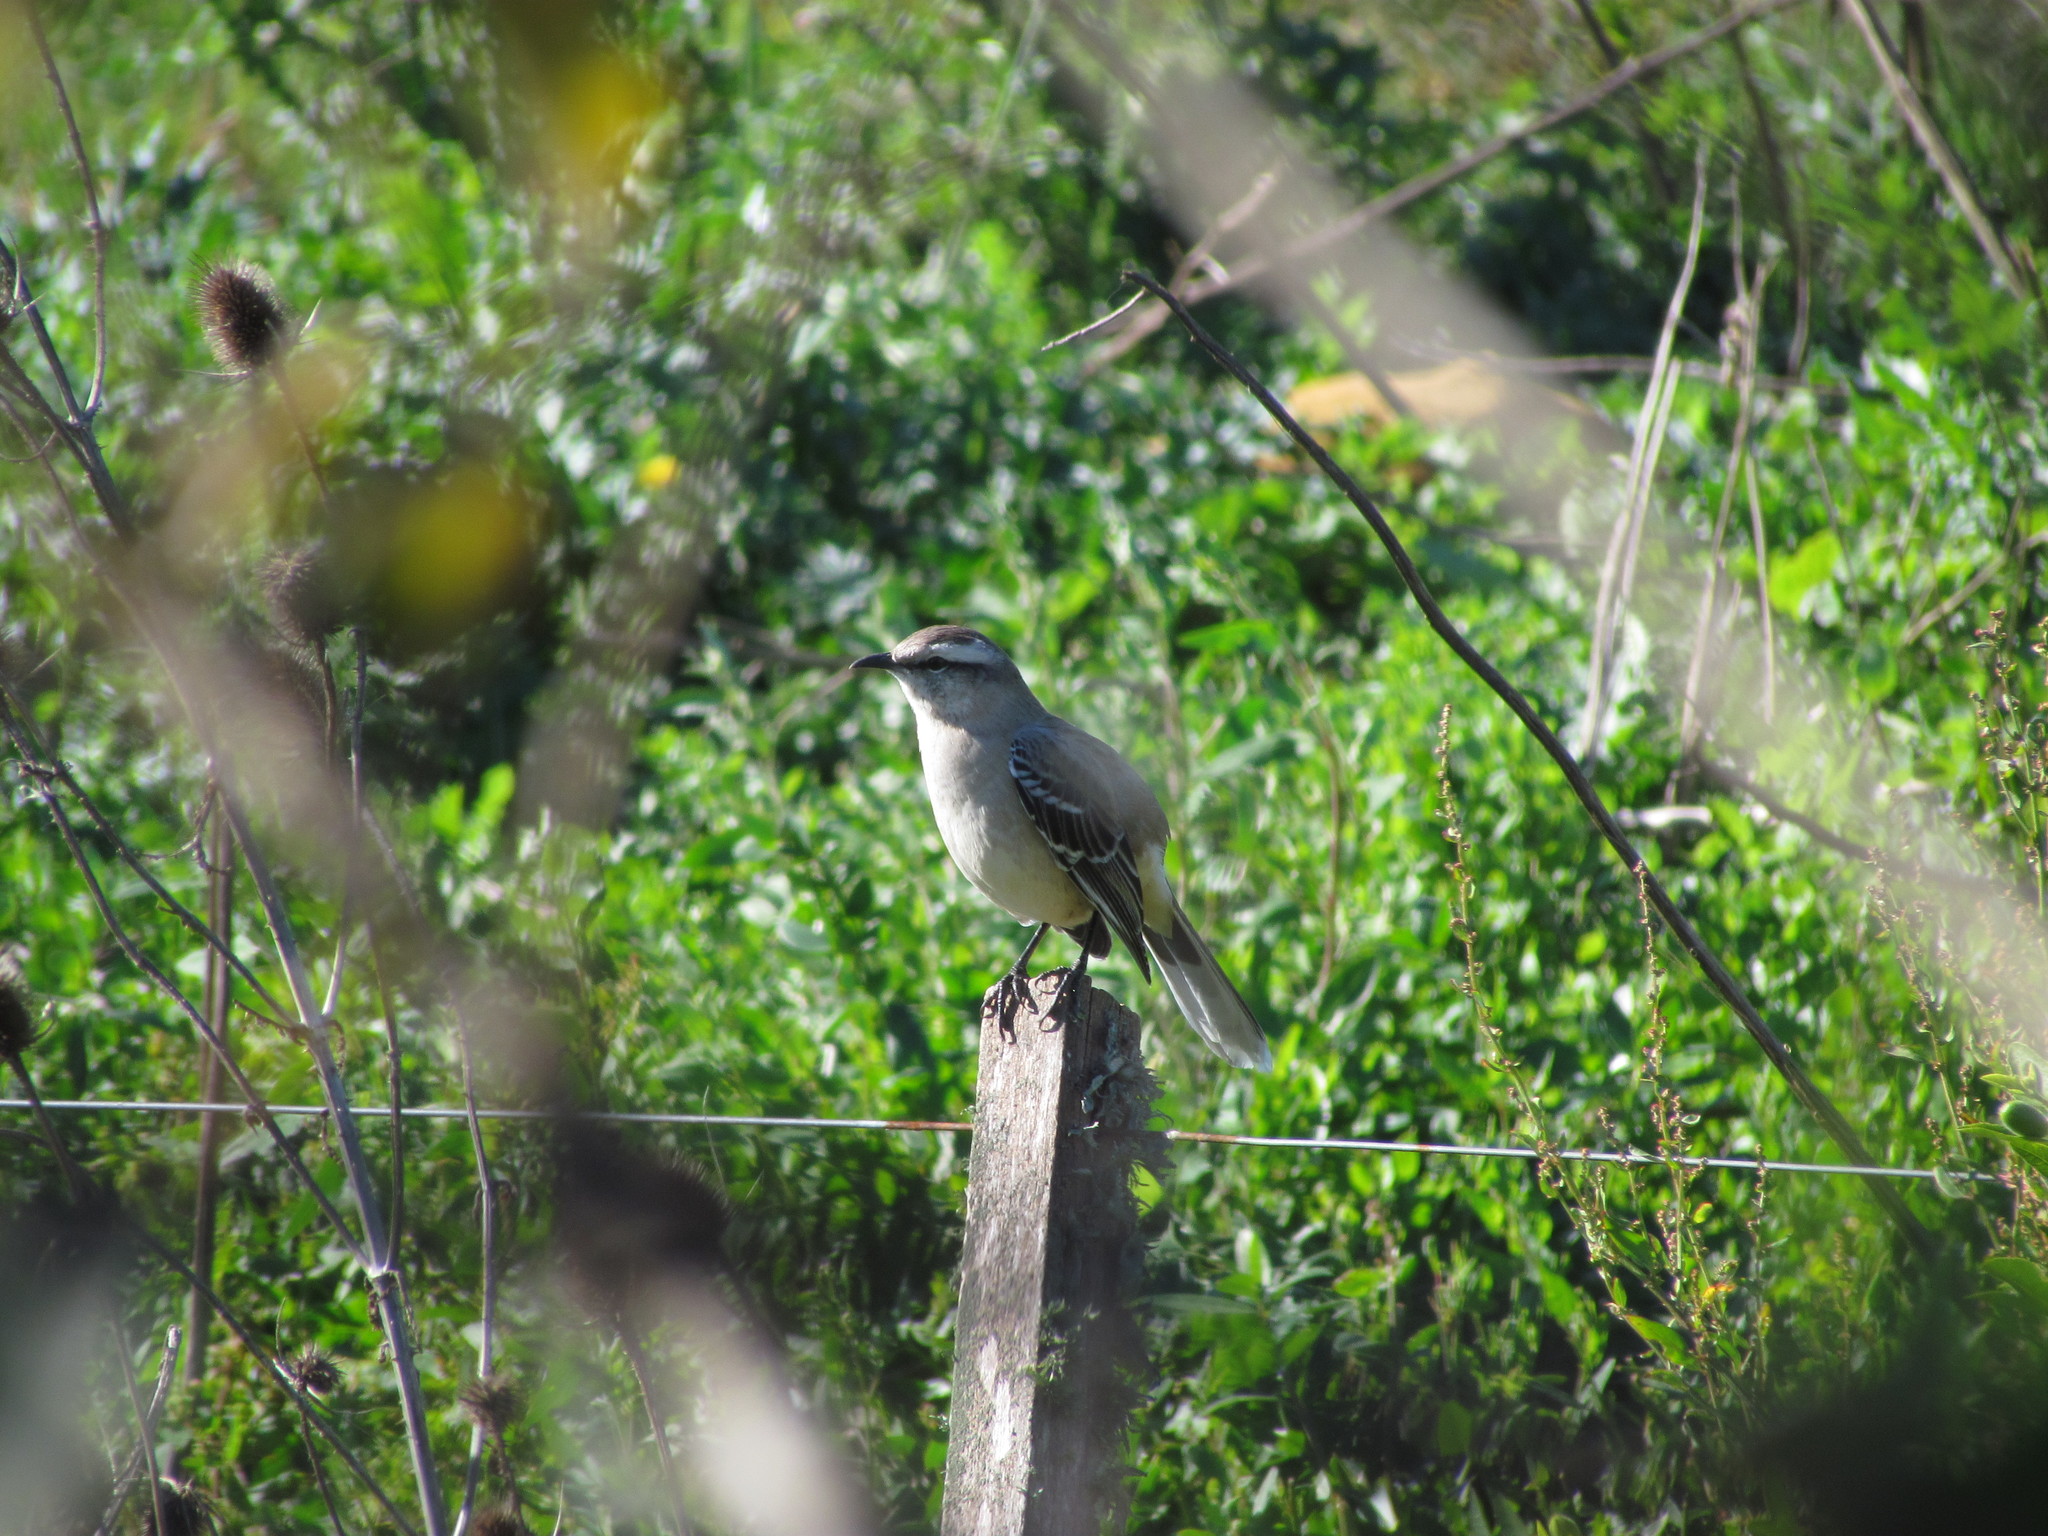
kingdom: Animalia
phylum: Chordata
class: Aves
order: Passeriformes
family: Mimidae
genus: Mimus
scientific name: Mimus saturninus
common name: Chalk-browed mockingbird
